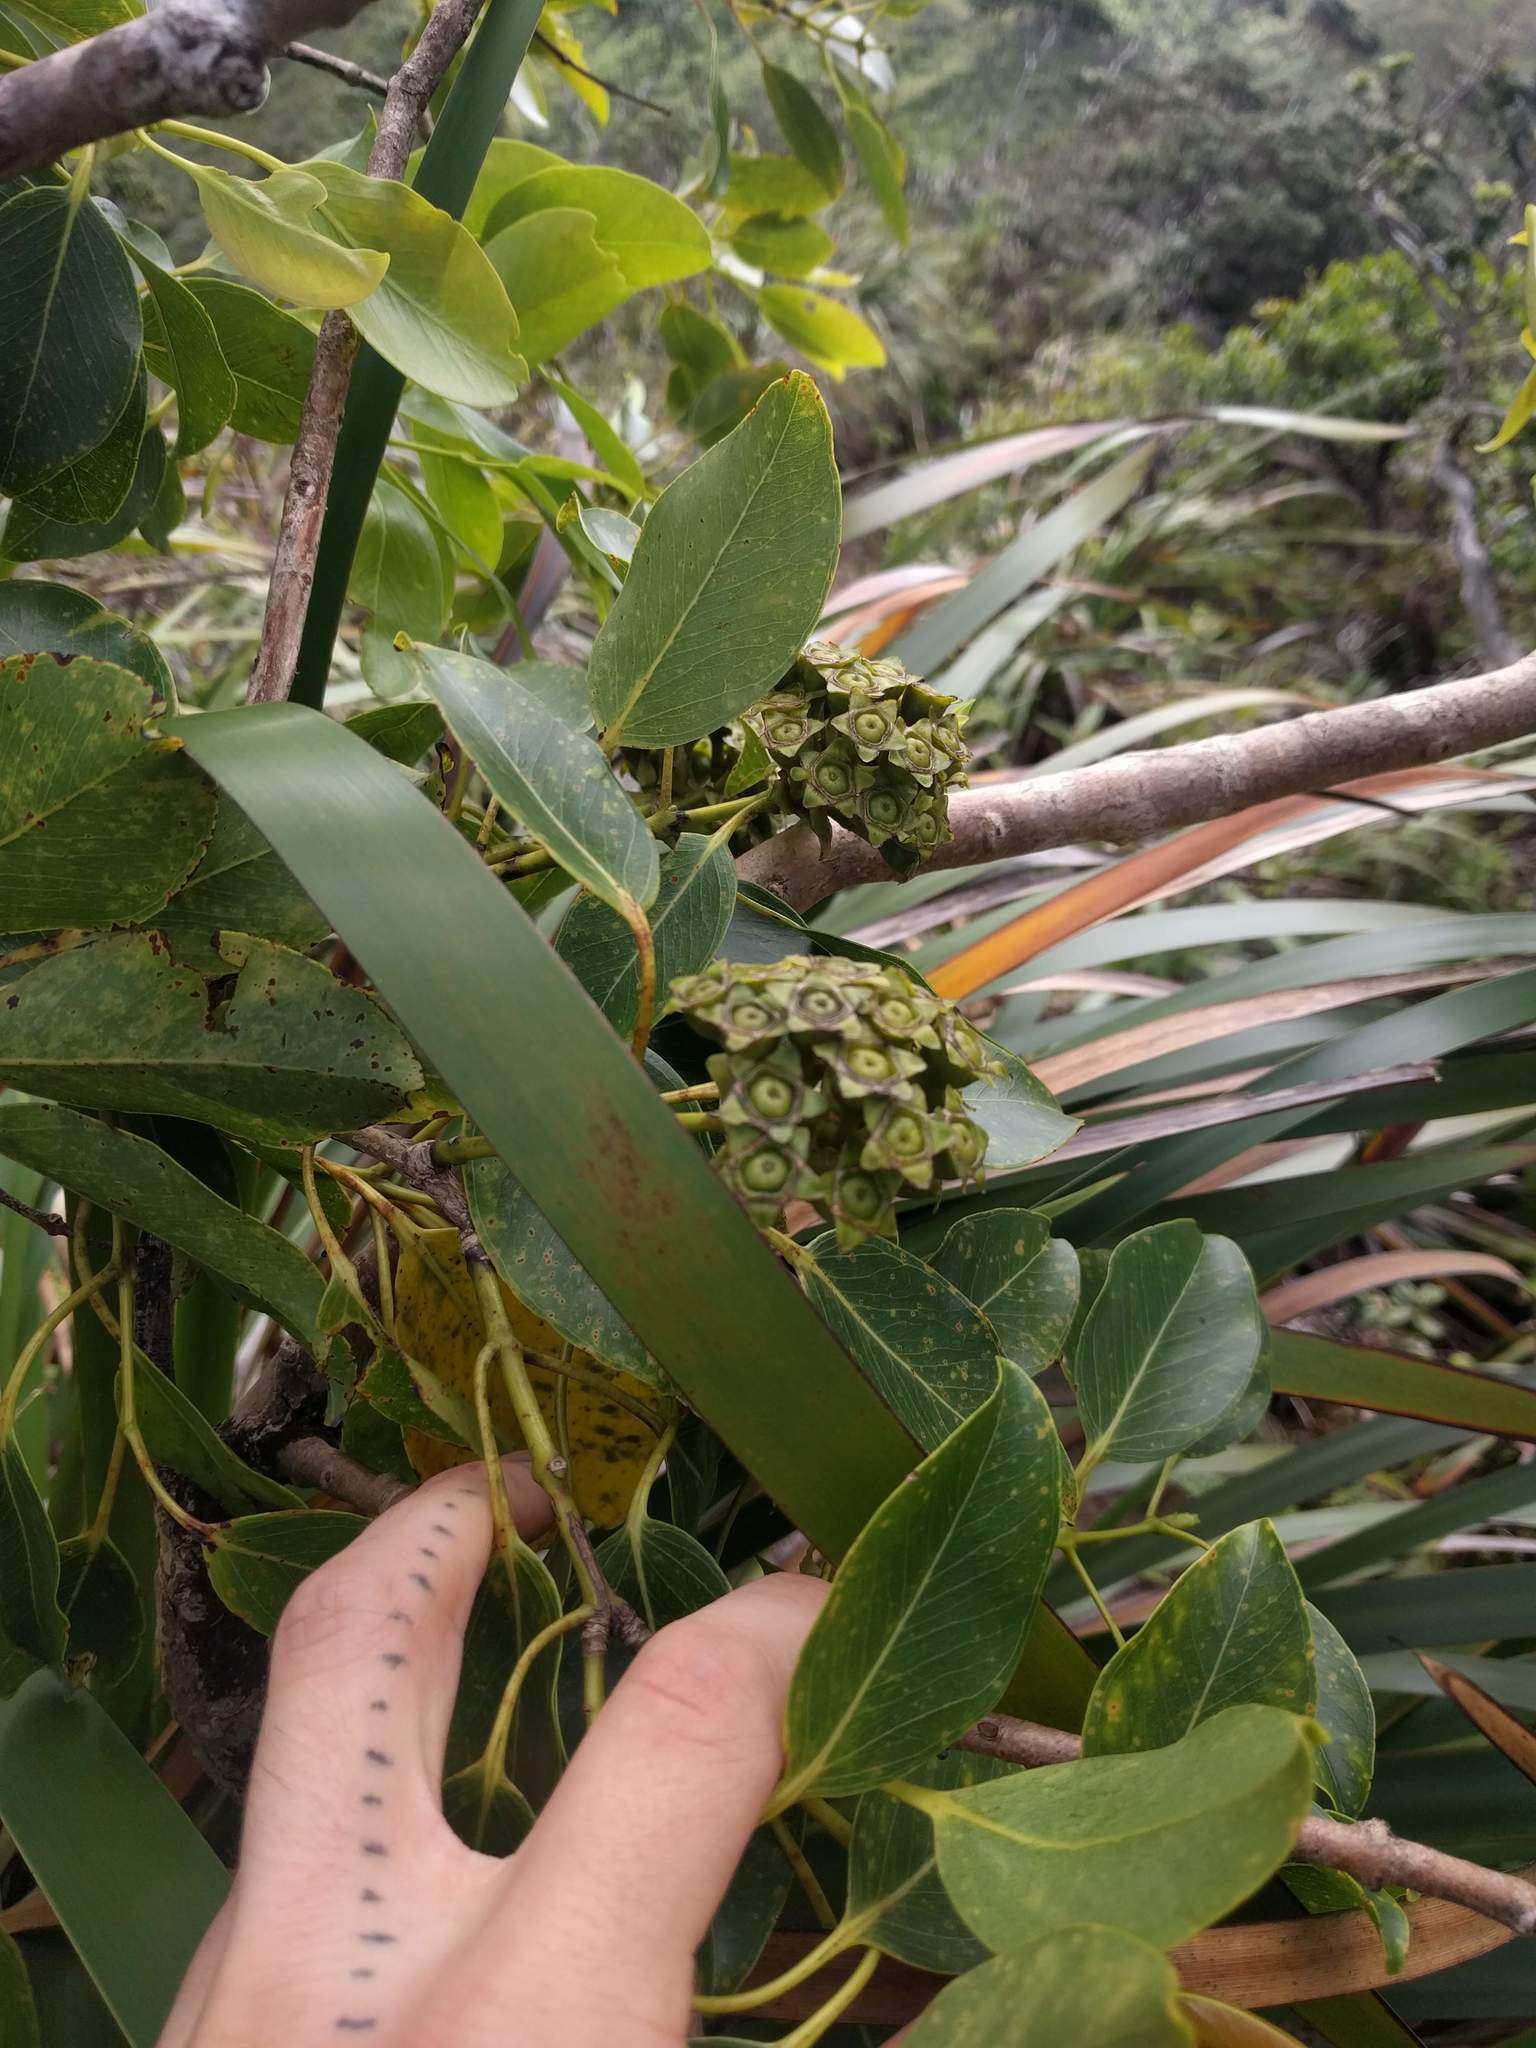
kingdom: Plantae
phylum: Tracheophyta
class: Magnoliopsida
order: Myrtales
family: Myrtaceae
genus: Metrosideros
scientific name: Metrosideros polymorpha
